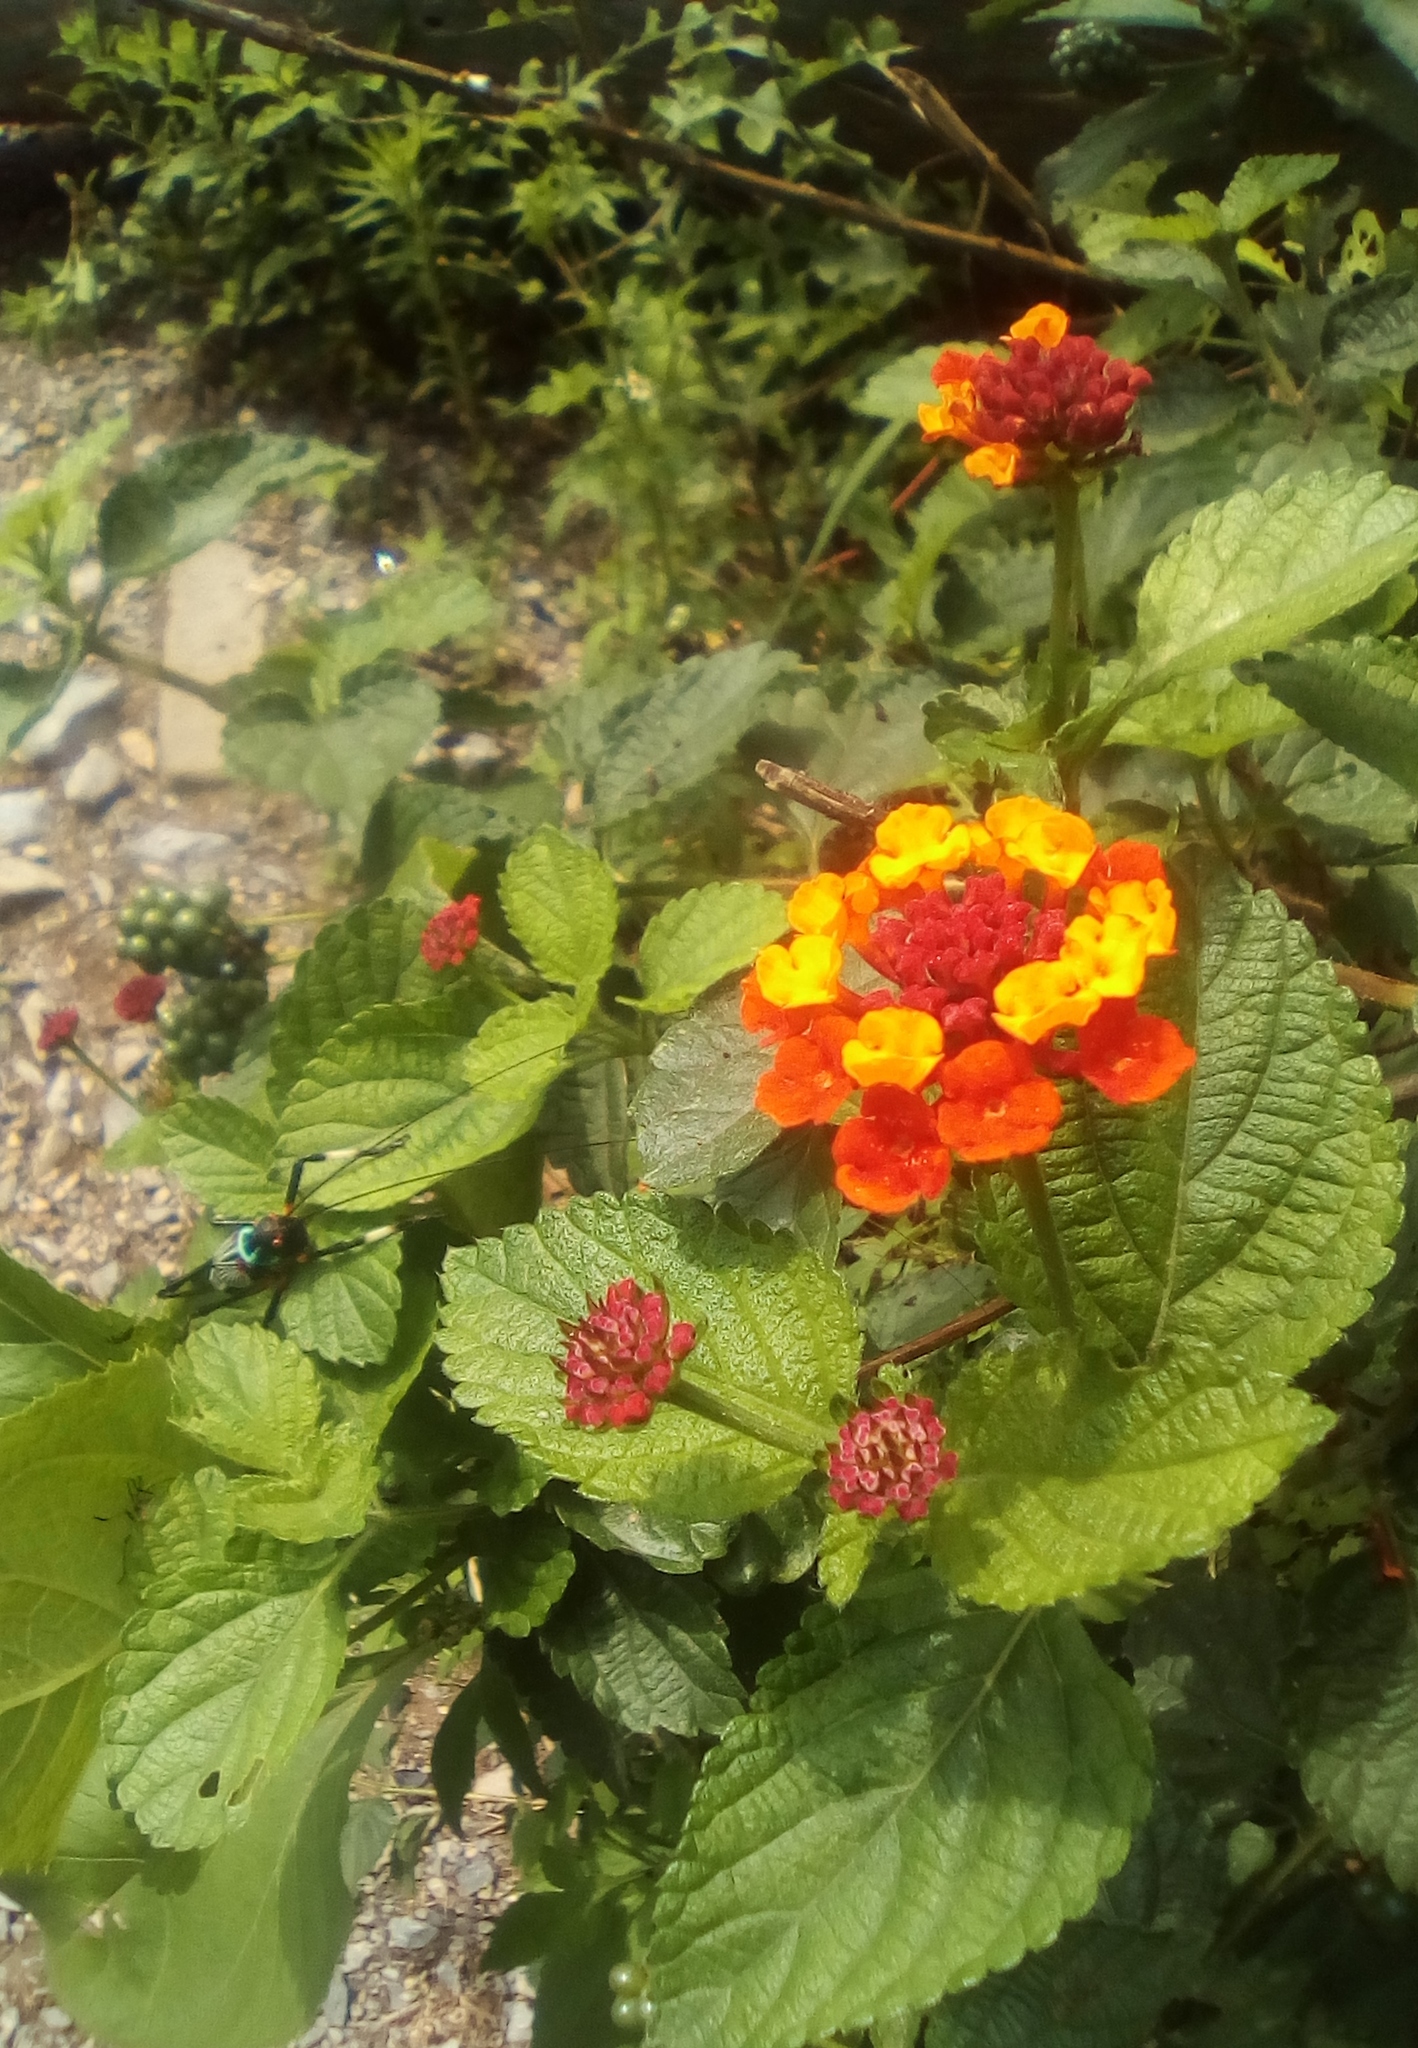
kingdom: Plantae
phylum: Tracheophyta
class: Magnoliopsida
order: Lamiales
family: Verbenaceae
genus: Lantana
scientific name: Lantana camara
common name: Lantana
